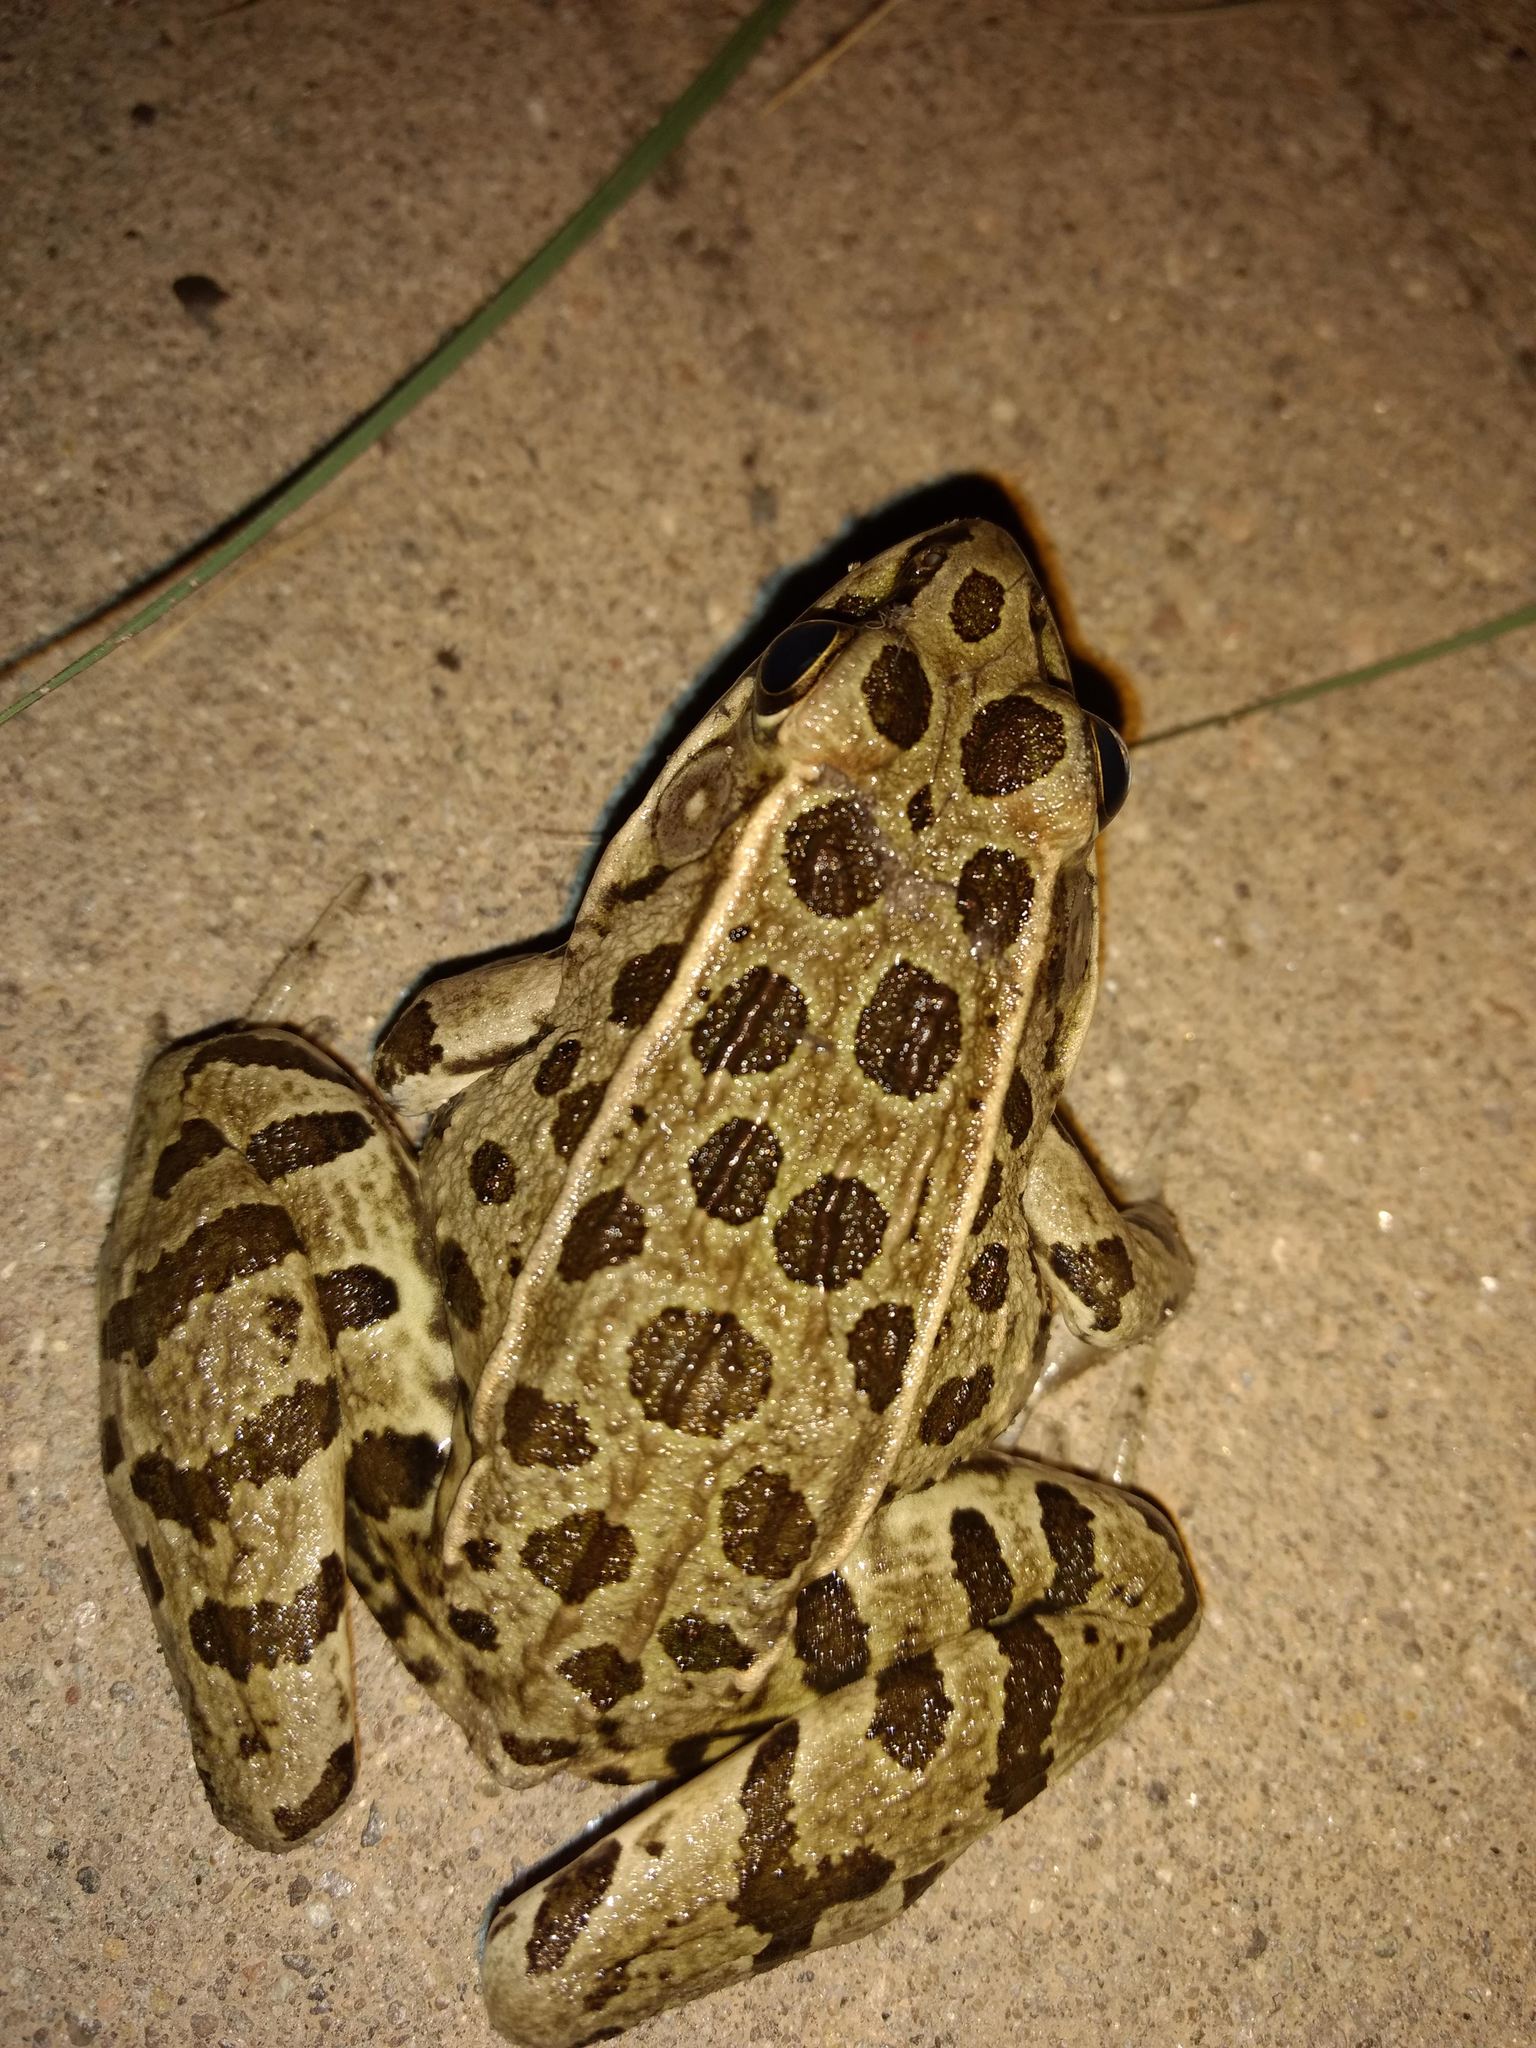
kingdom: Animalia
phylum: Chordata
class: Amphibia
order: Anura
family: Ranidae
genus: Lithobates
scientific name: Lithobates blairi
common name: Plains leopard frog
